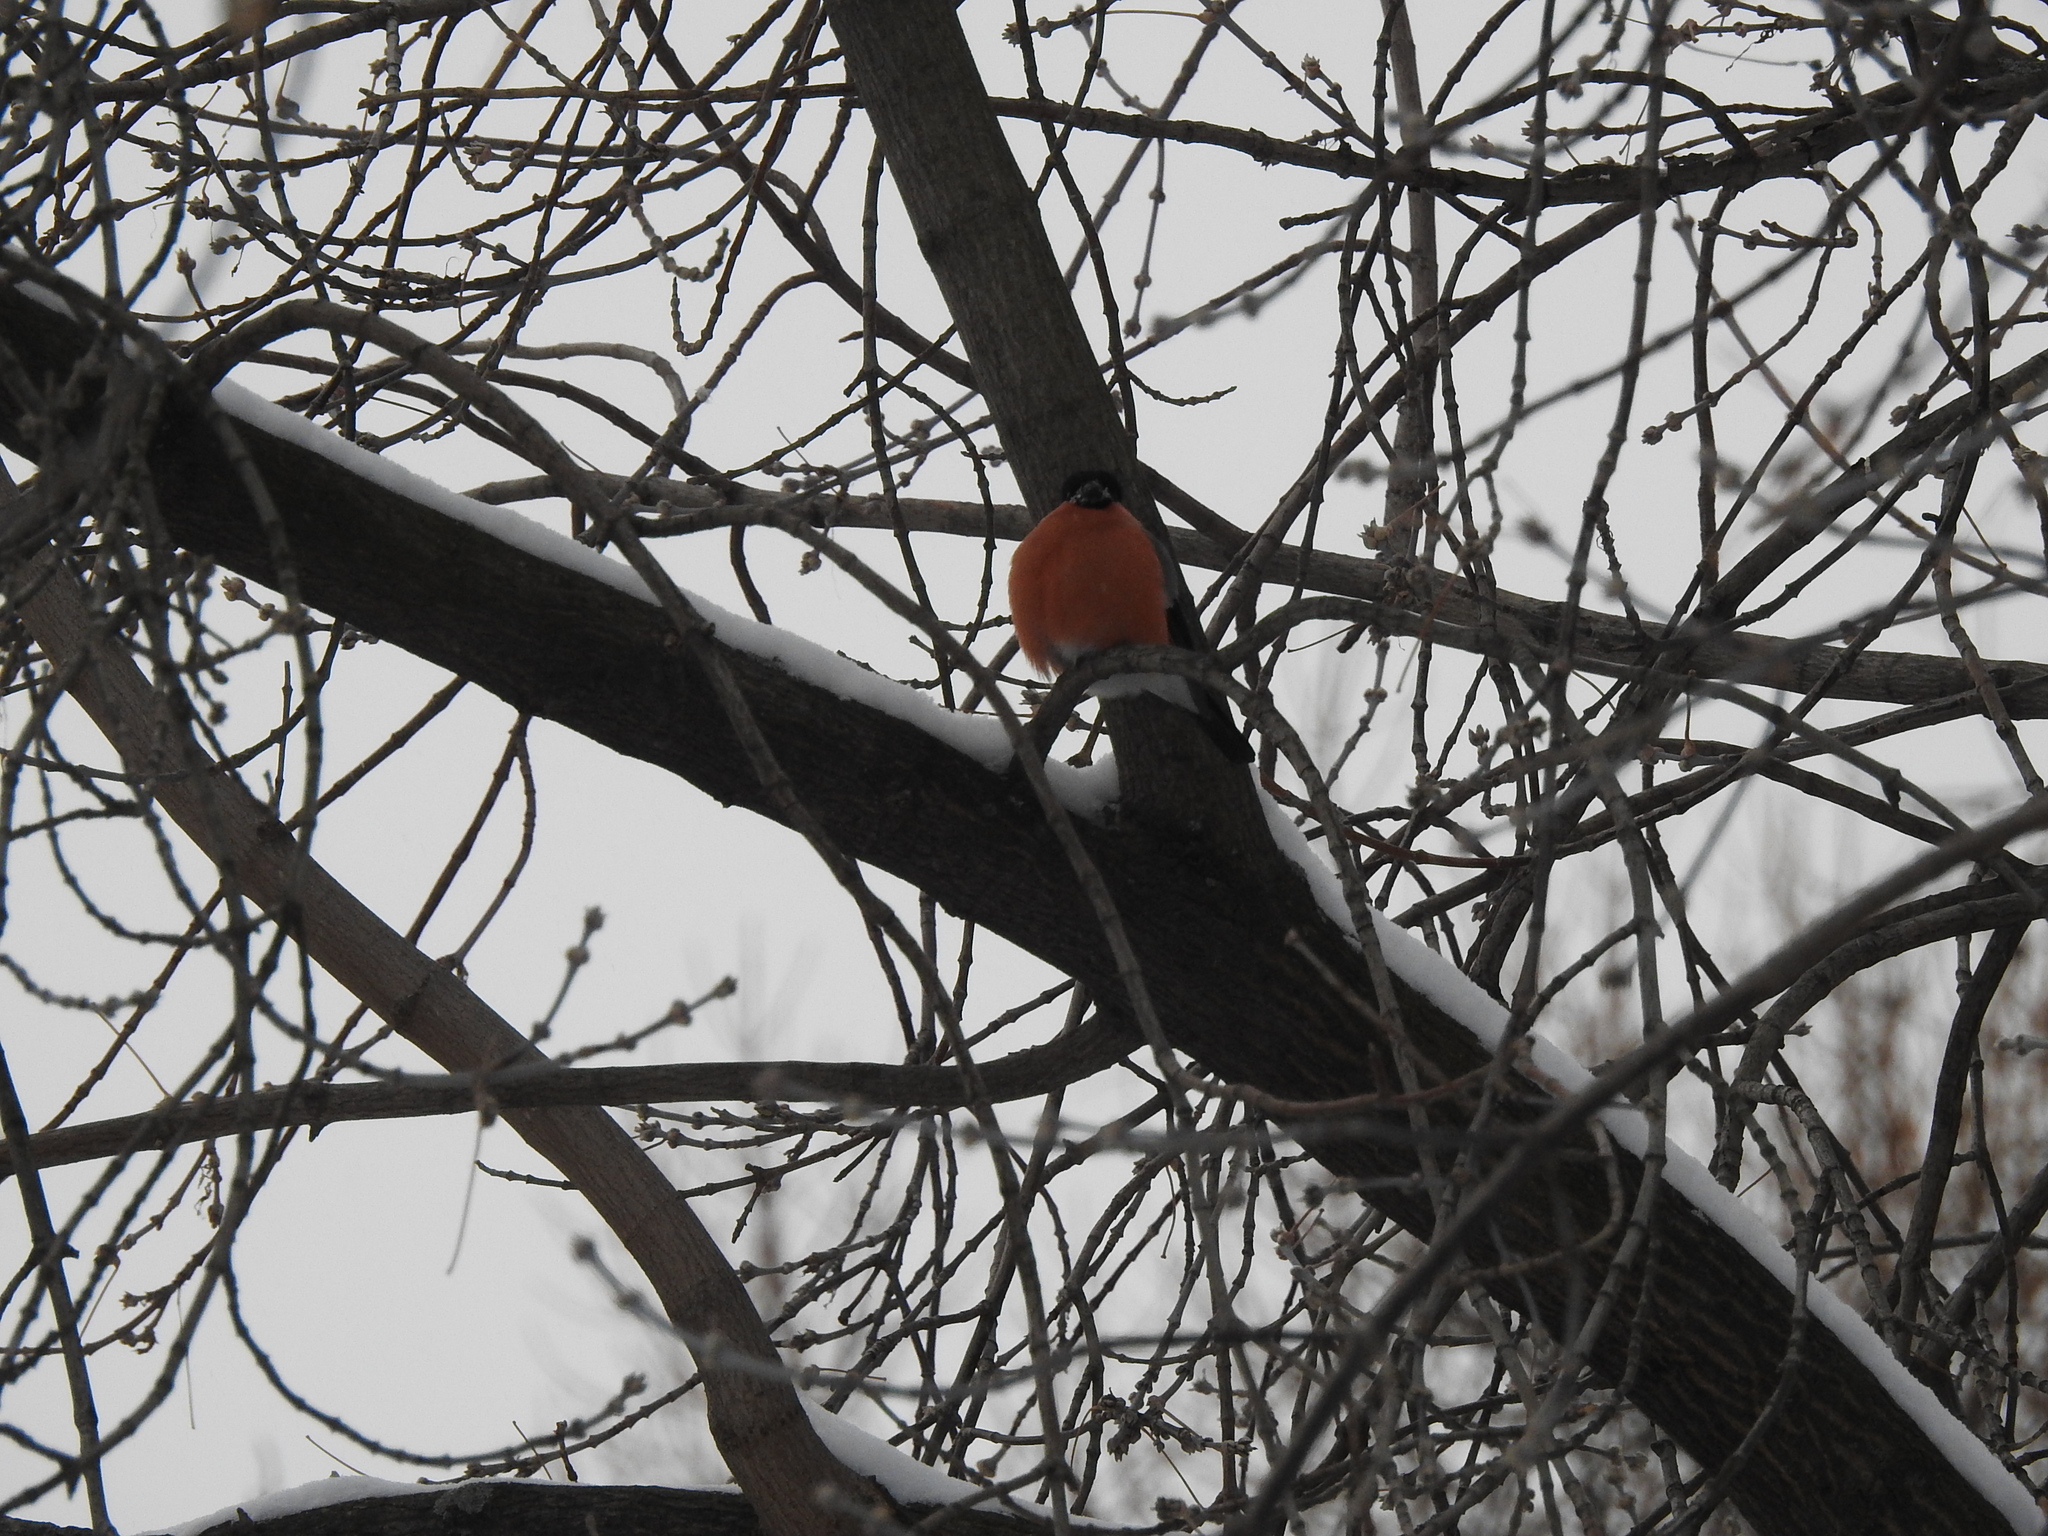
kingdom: Animalia
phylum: Chordata
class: Aves
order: Passeriformes
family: Fringillidae
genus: Pyrrhula
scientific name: Pyrrhula pyrrhula
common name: Eurasian bullfinch
